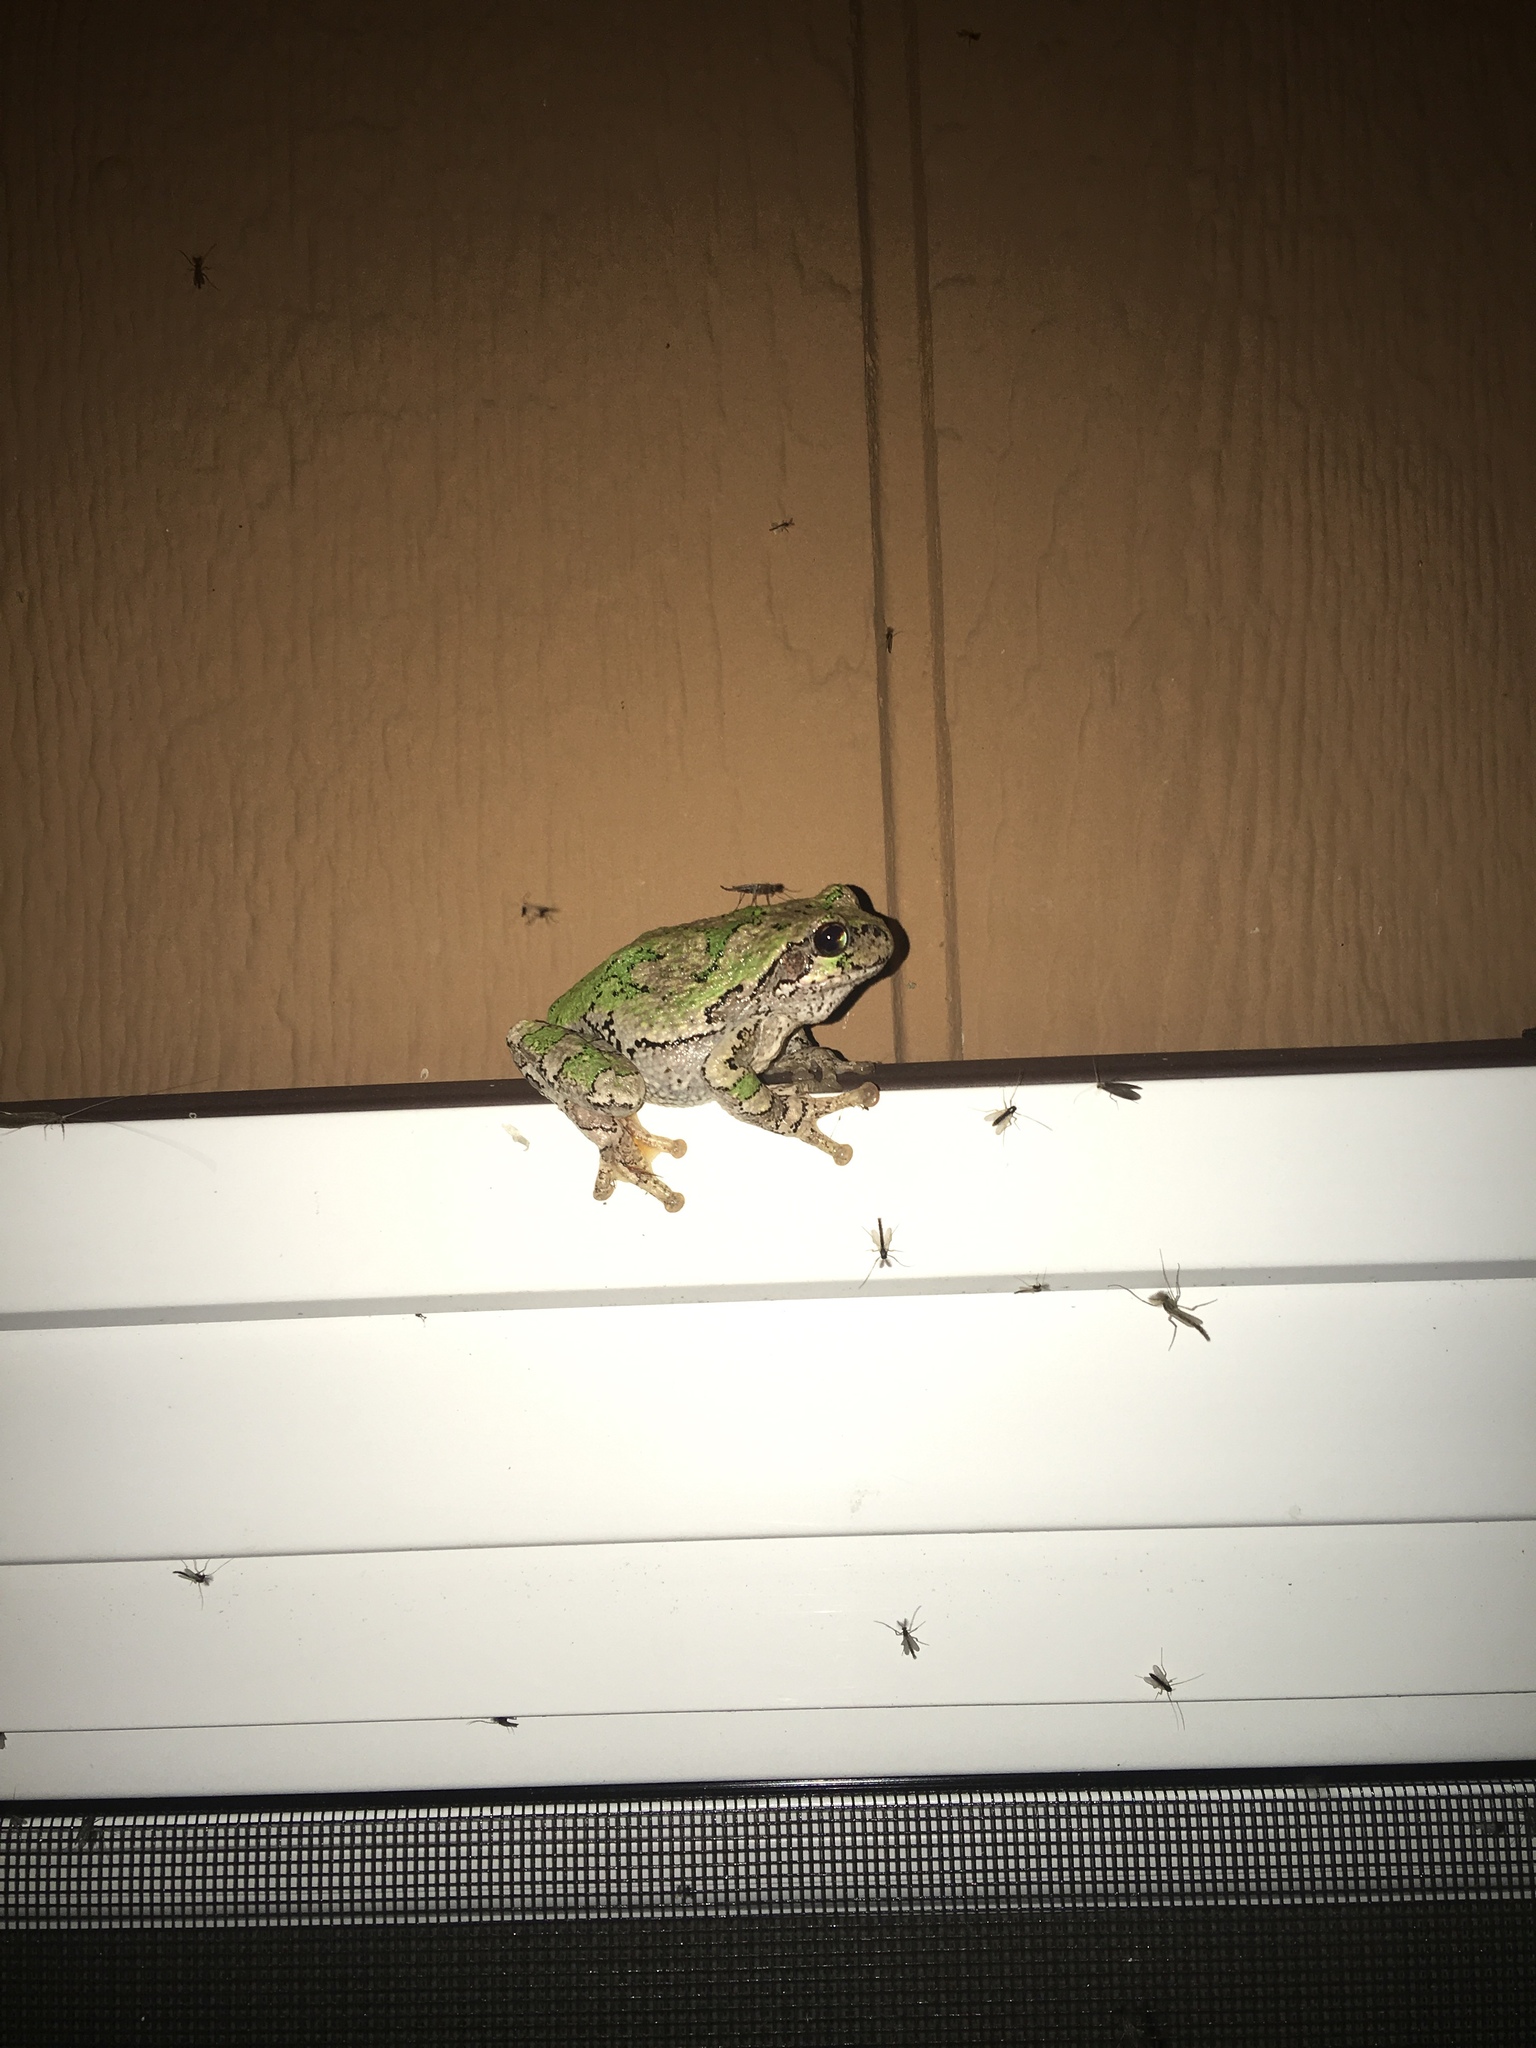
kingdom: Animalia
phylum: Chordata
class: Amphibia
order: Anura
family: Hylidae
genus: Dryophytes
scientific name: Dryophytes versicolor
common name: Gray treefrog
